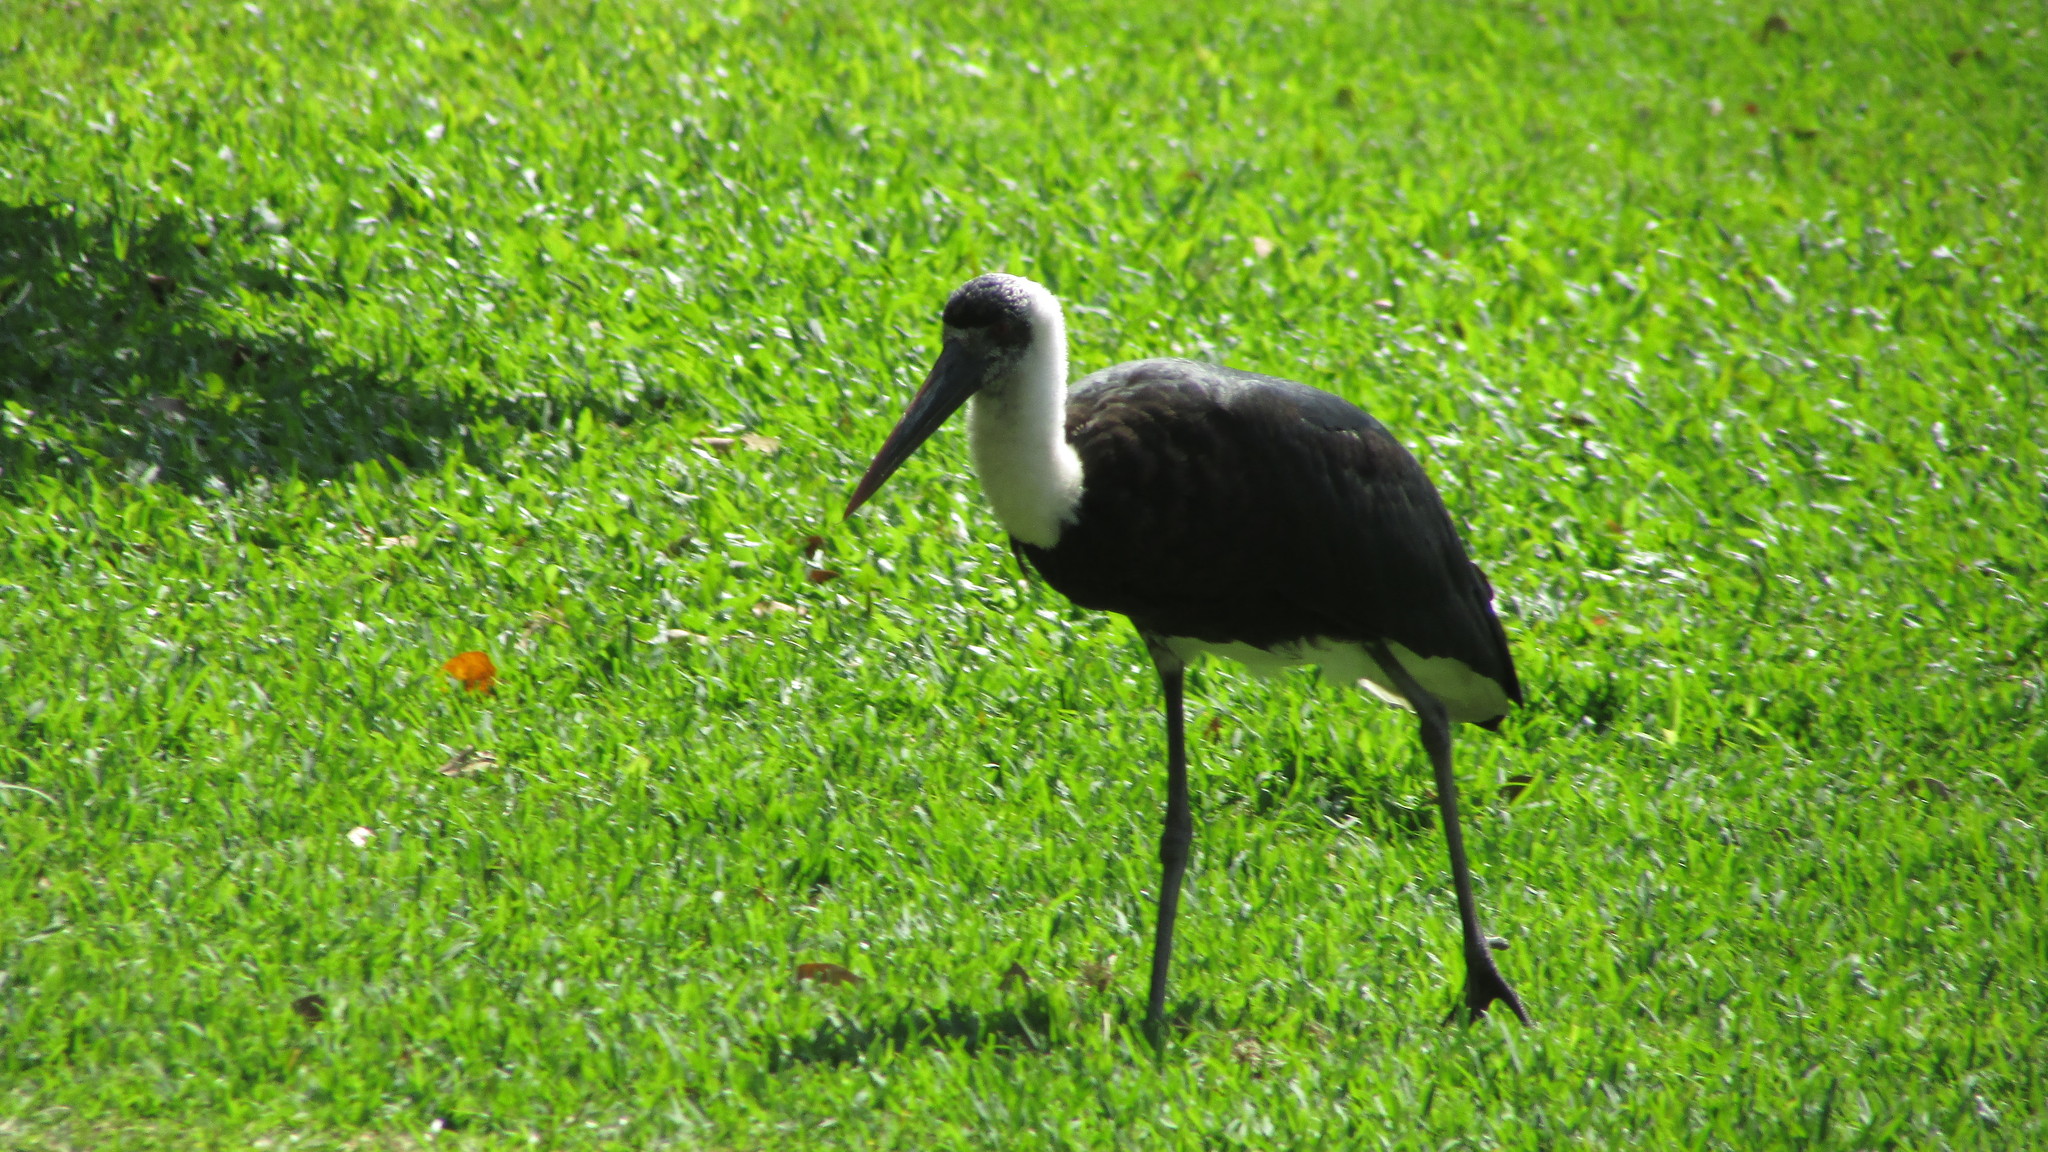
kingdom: Animalia
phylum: Chordata
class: Aves
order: Ciconiiformes
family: Ciconiidae
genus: Ciconia
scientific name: Ciconia microscelis
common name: African woollyneck
